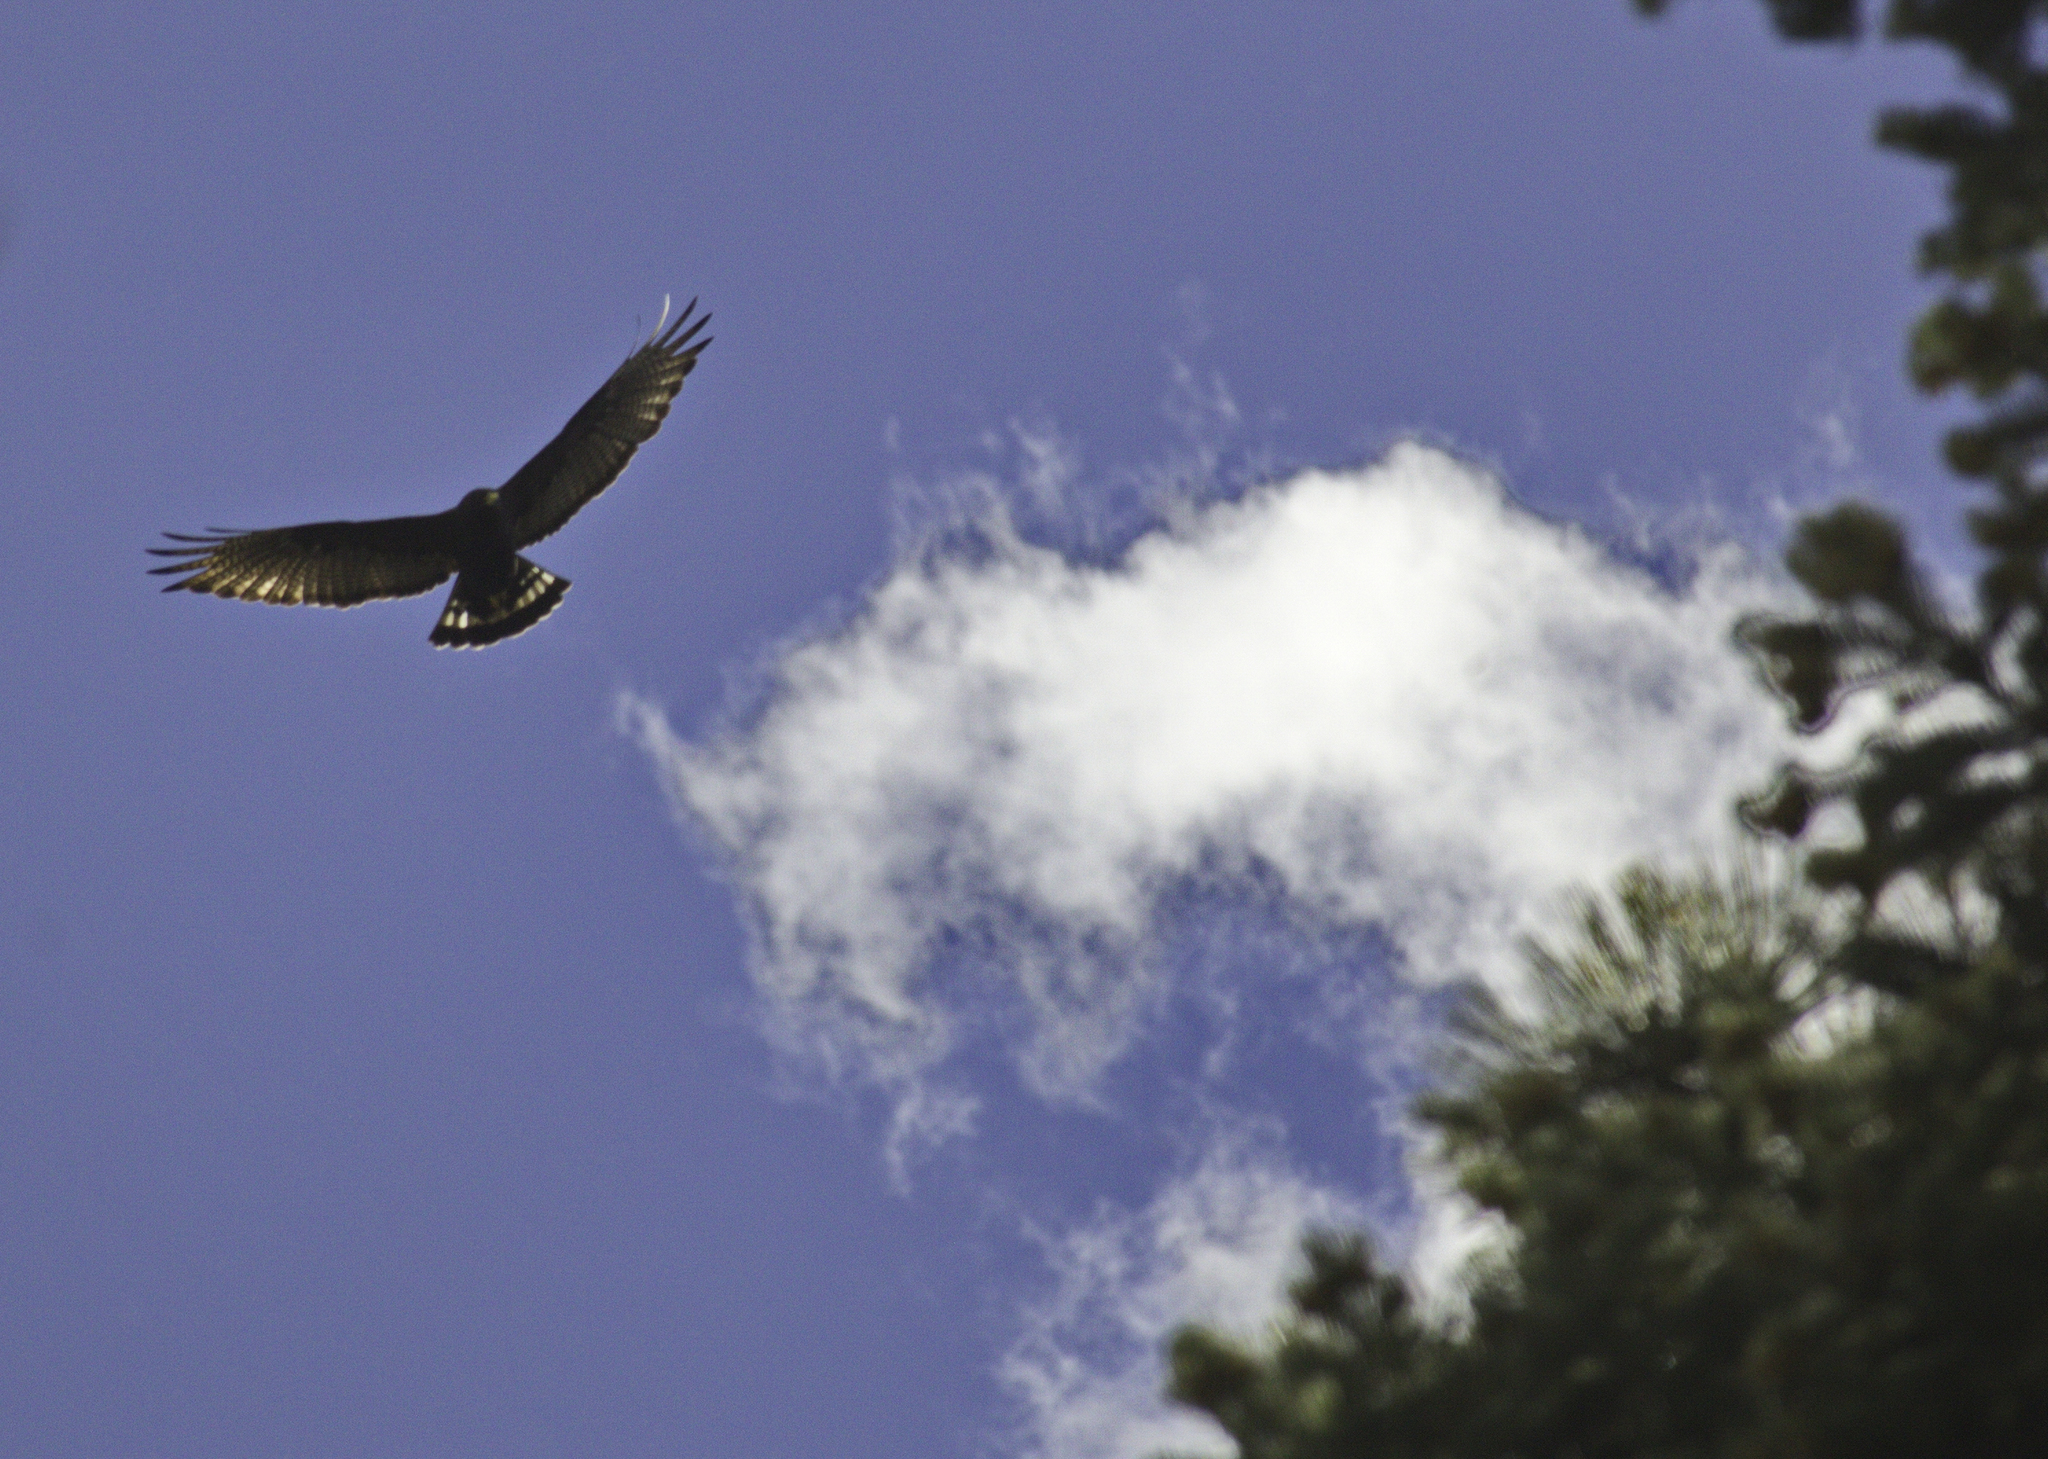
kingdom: Animalia
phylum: Chordata
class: Aves
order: Accipitriformes
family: Accipitridae
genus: Buteo
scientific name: Buteo albonotatus
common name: Zone-tailed hawk
